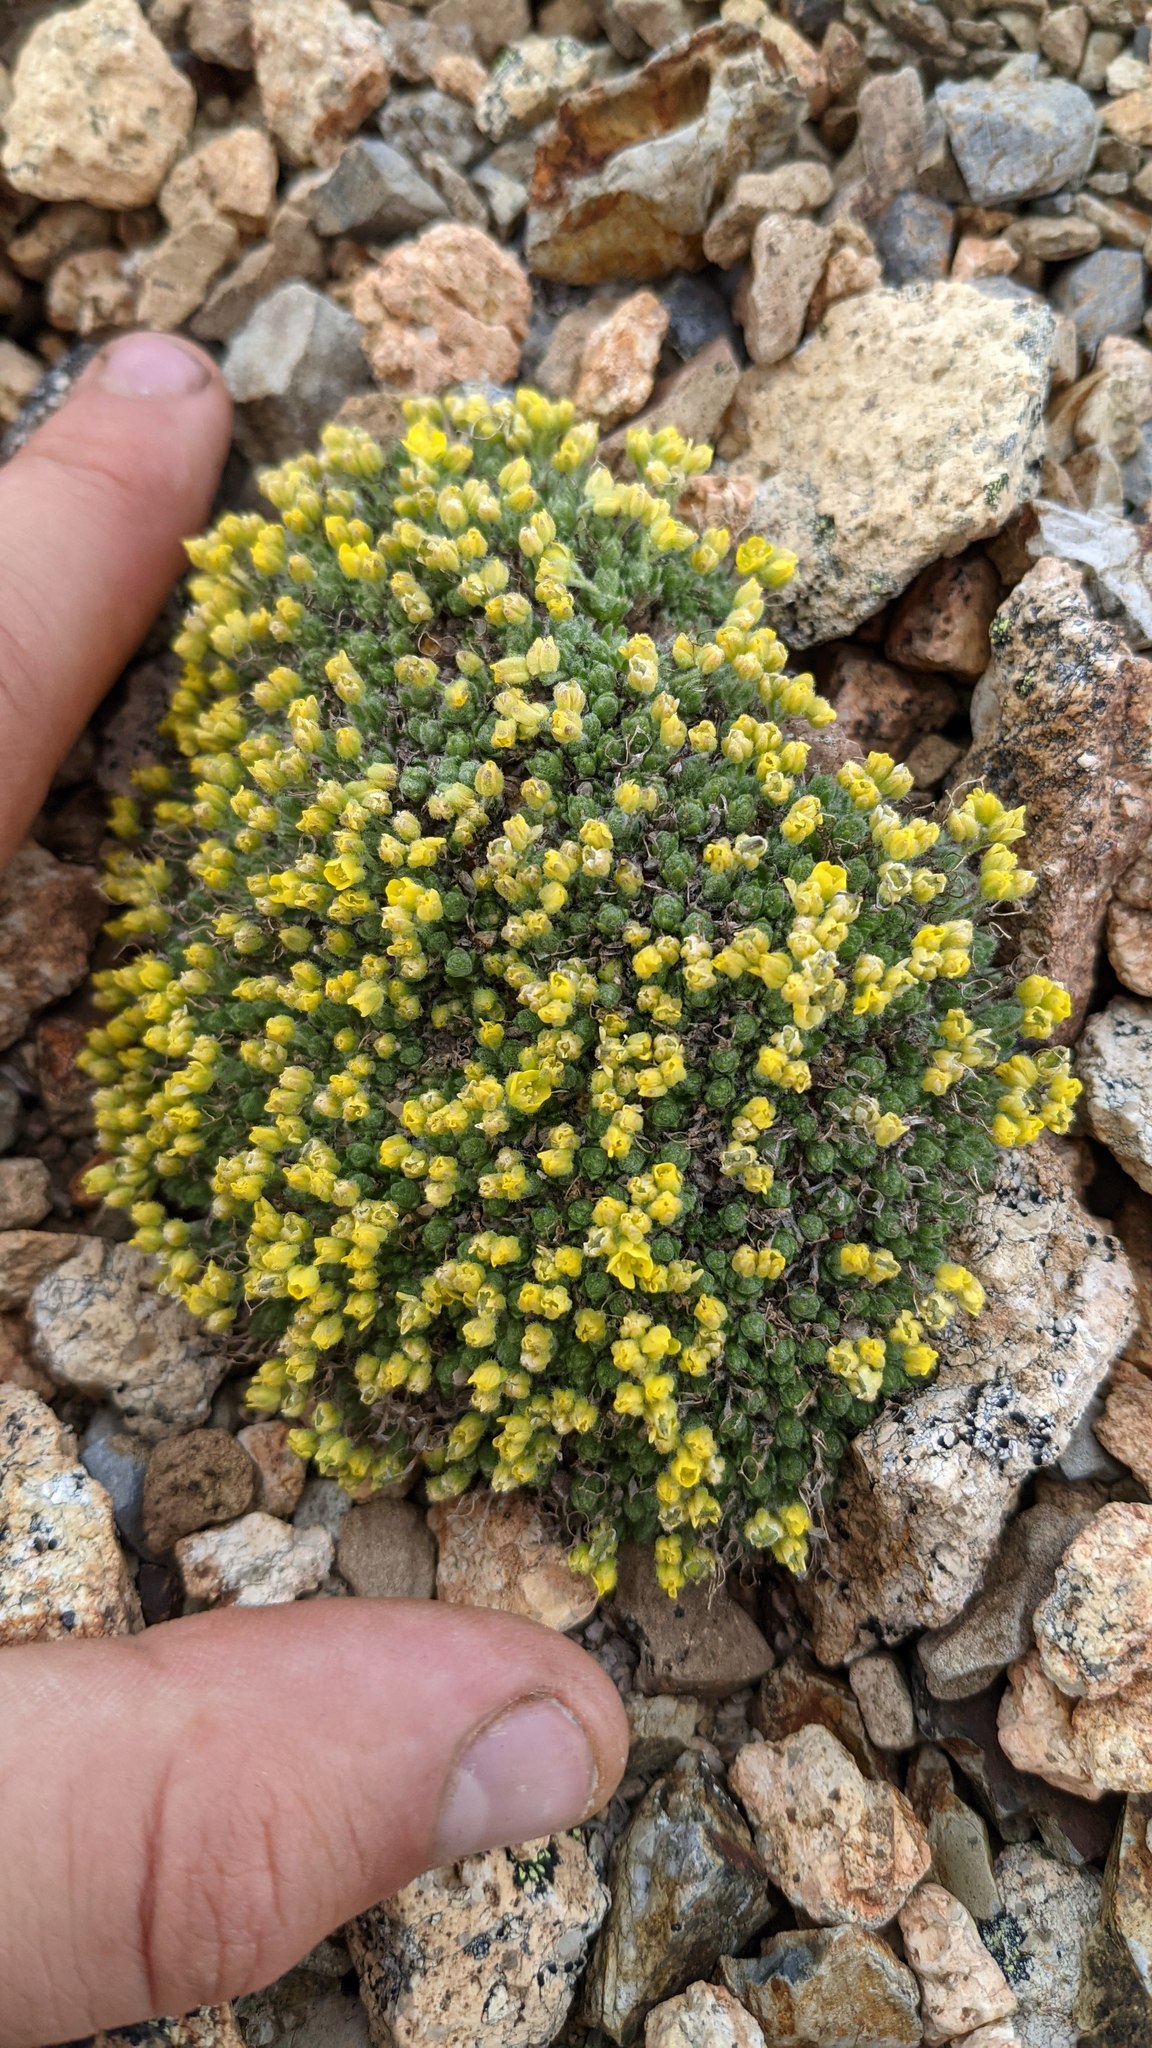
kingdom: Plantae
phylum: Tracheophyta
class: Magnoliopsida
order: Brassicales
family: Brassicaceae
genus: Draba
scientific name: Draba novolympica
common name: Olympic mountains draba
